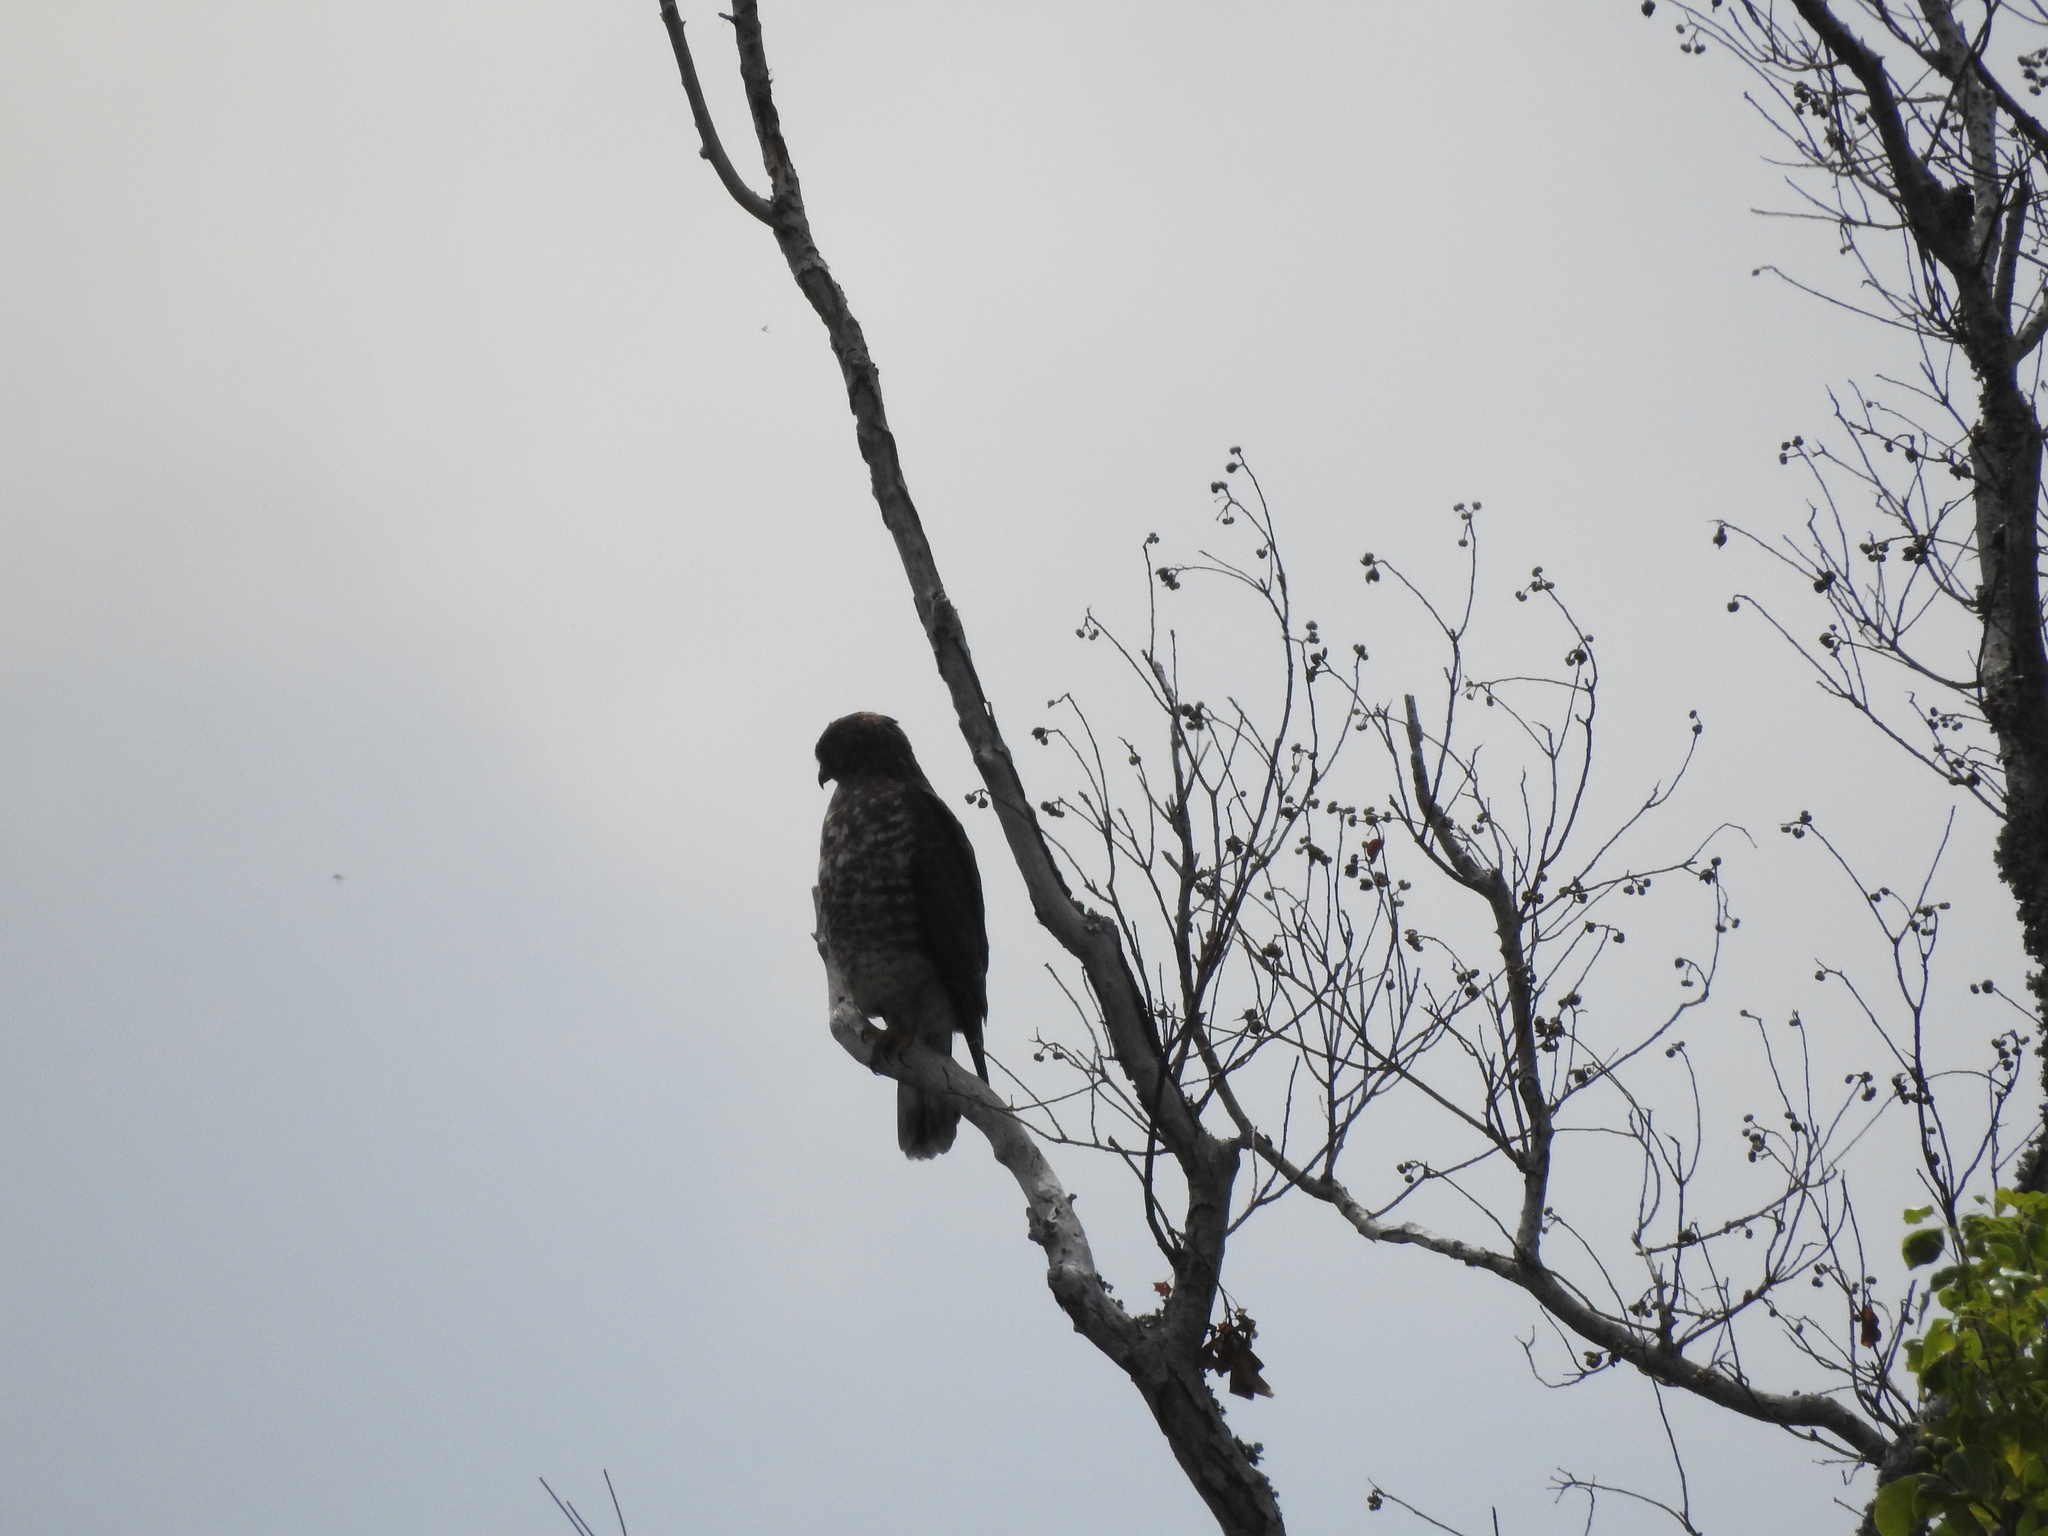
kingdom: Animalia
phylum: Chordata
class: Aves
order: Accipitriformes
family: Accipitridae
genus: Buteo
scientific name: Buteo platypterus
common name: Broad-winged hawk
